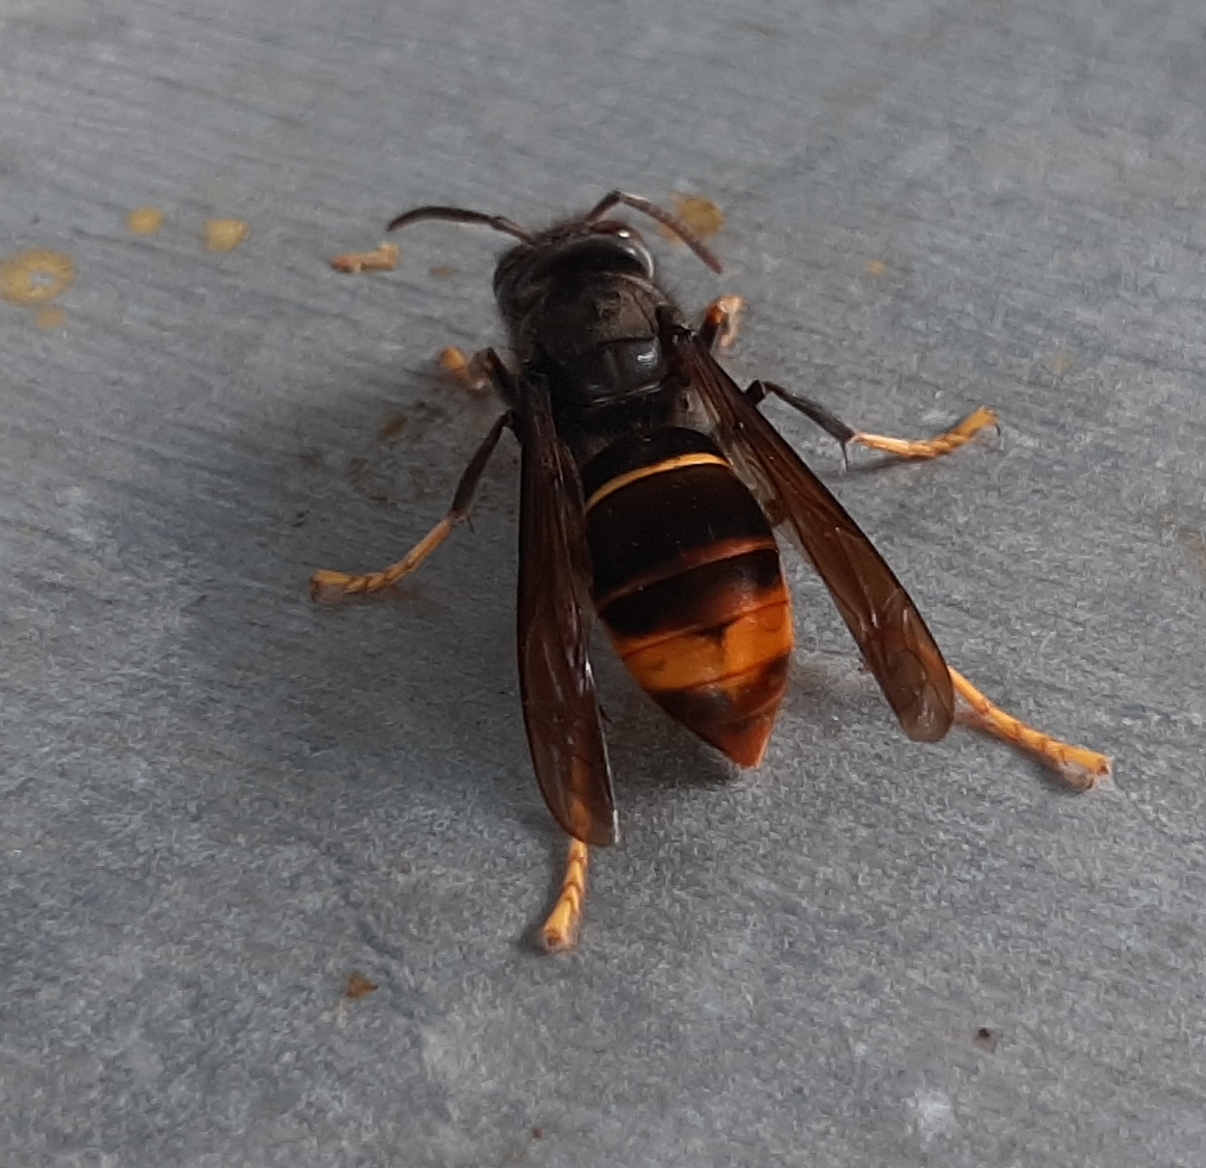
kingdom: Animalia
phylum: Arthropoda
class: Insecta
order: Hymenoptera
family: Vespidae
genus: Vespa
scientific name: Vespa velutina
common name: Asian hornet
